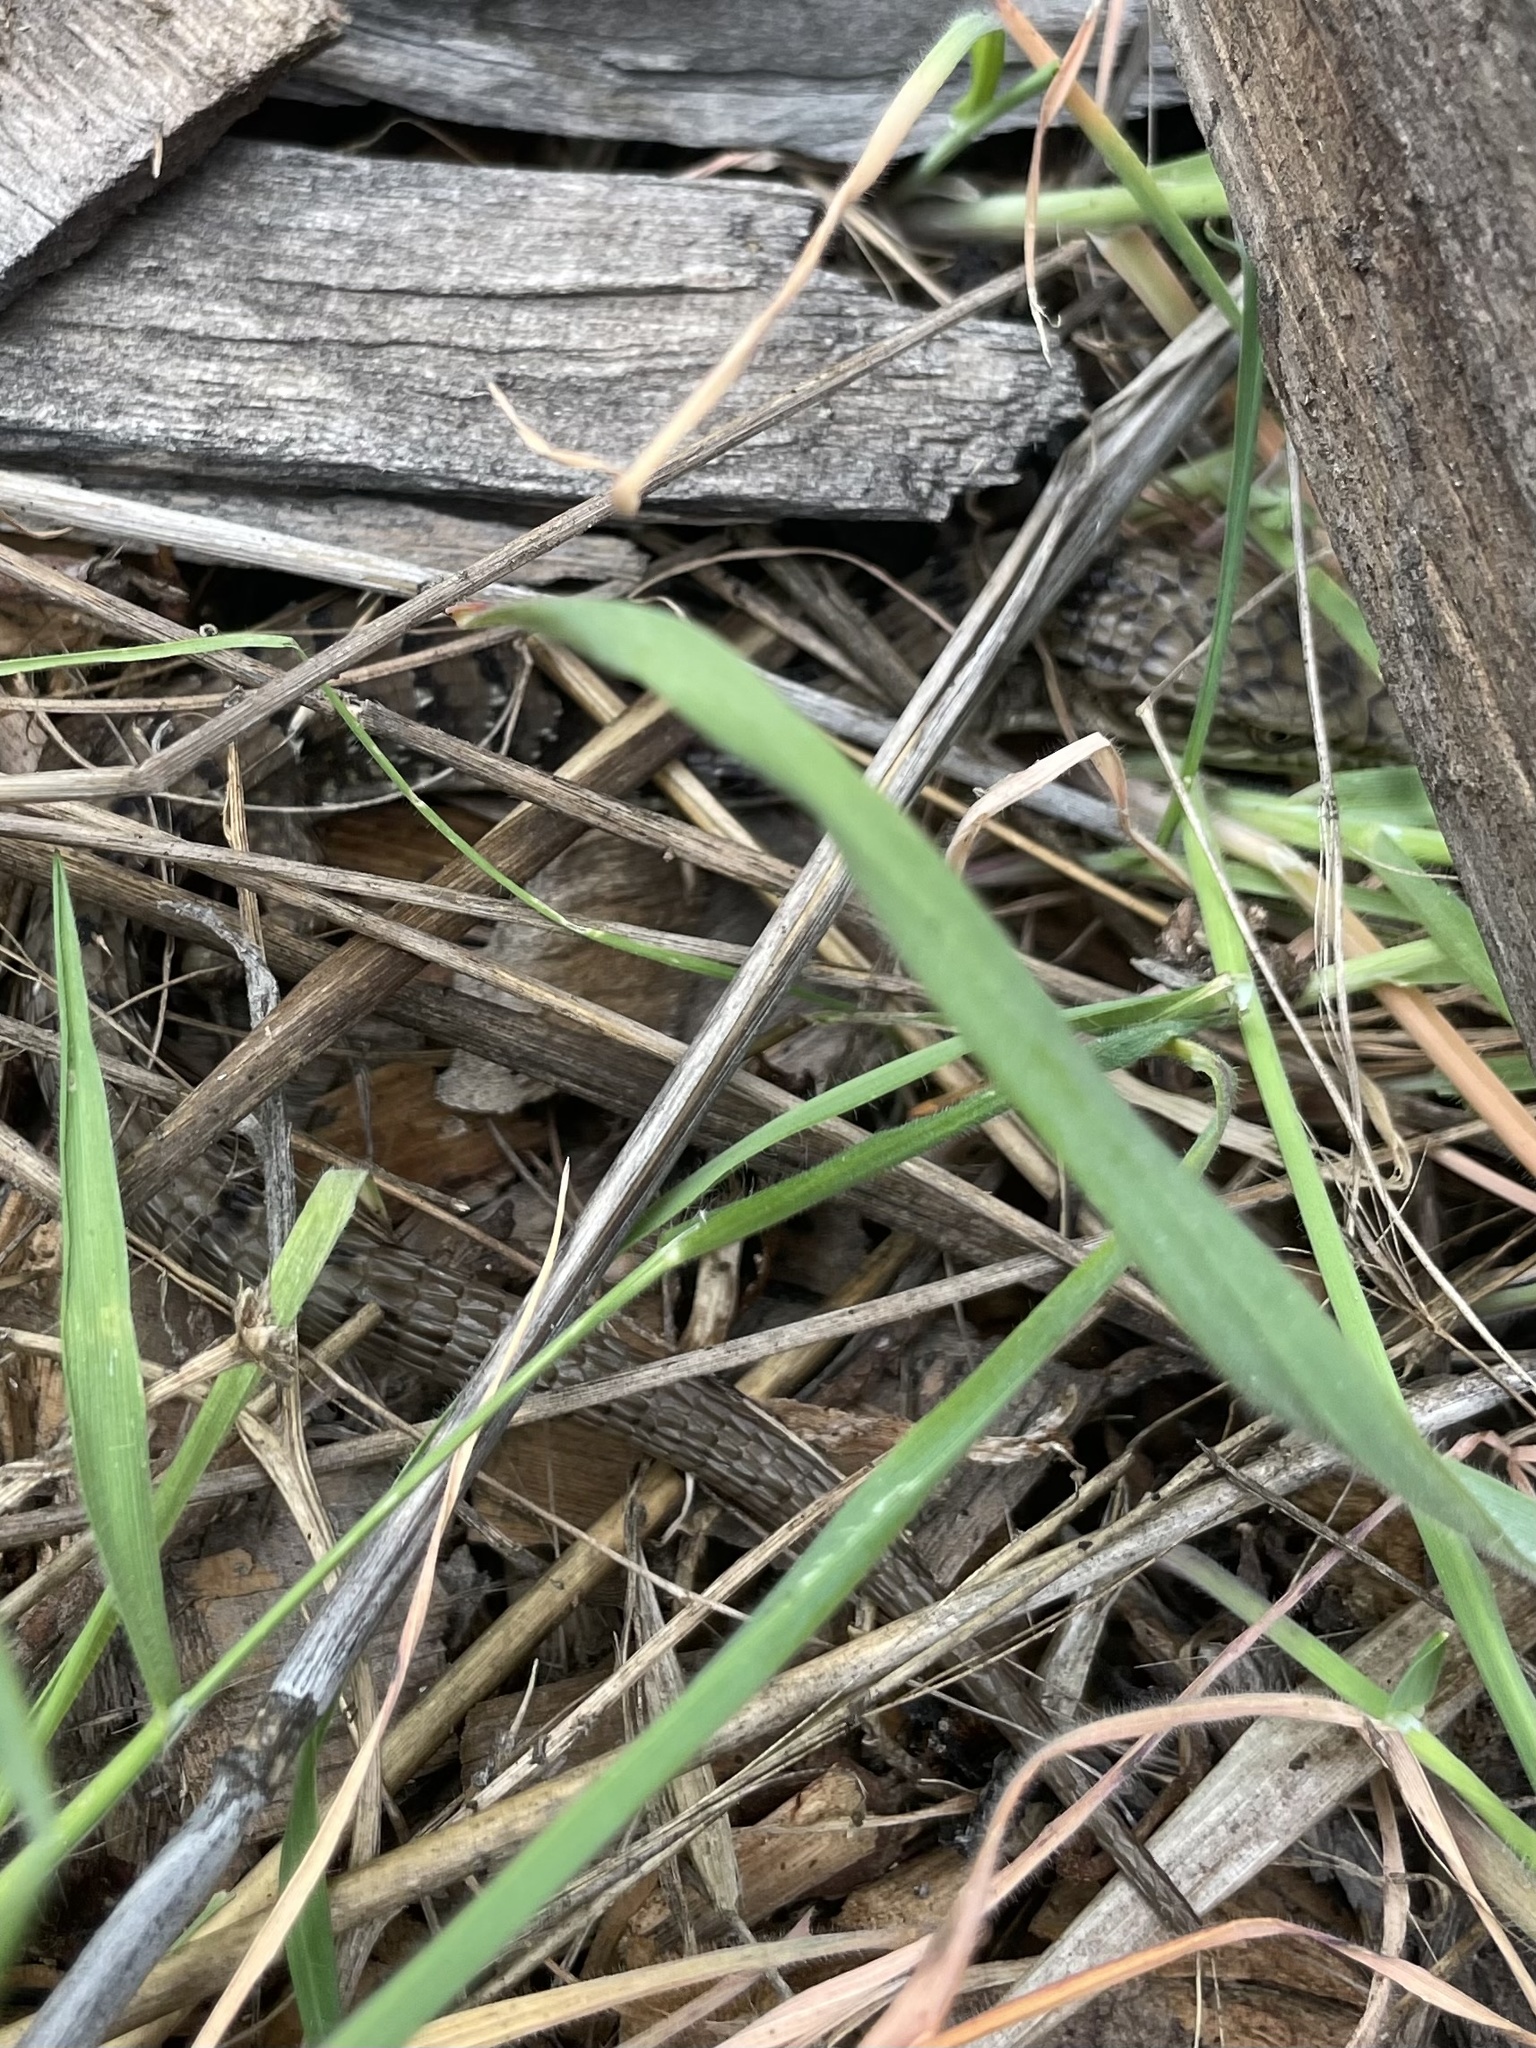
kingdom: Animalia
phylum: Chordata
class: Squamata
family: Anguidae
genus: Elgaria
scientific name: Elgaria multicarinata
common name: Southern alligator lizard
